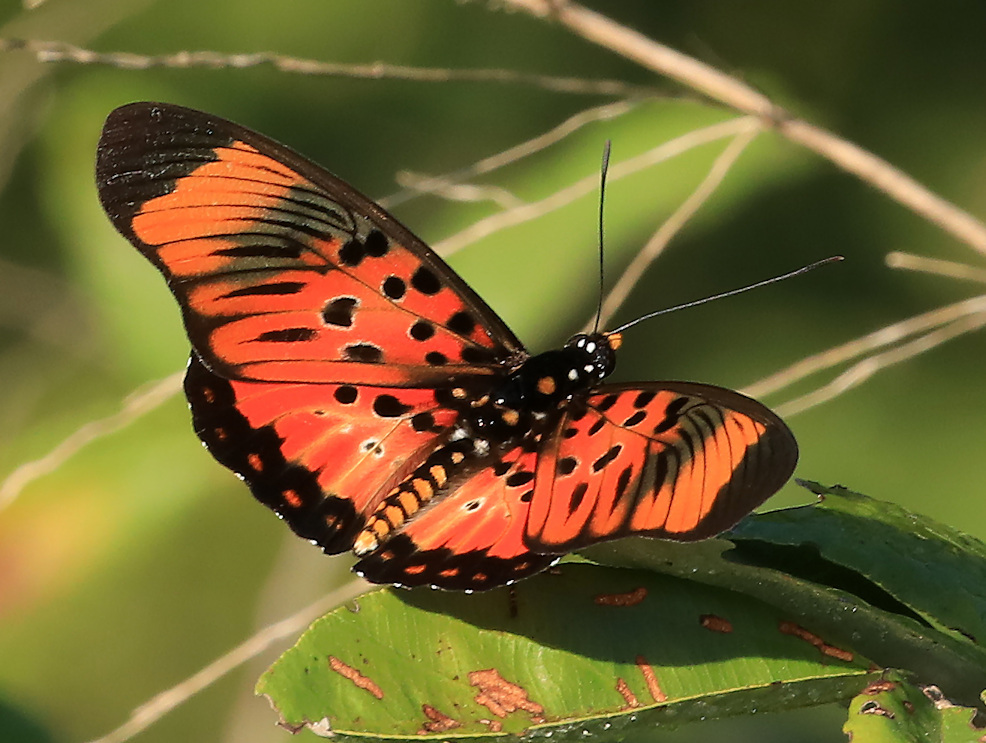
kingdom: Animalia
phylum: Arthropoda
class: Insecta
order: Lepidoptera
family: Nymphalidae
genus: Chloropoea
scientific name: Chloropoea boisduvalii
